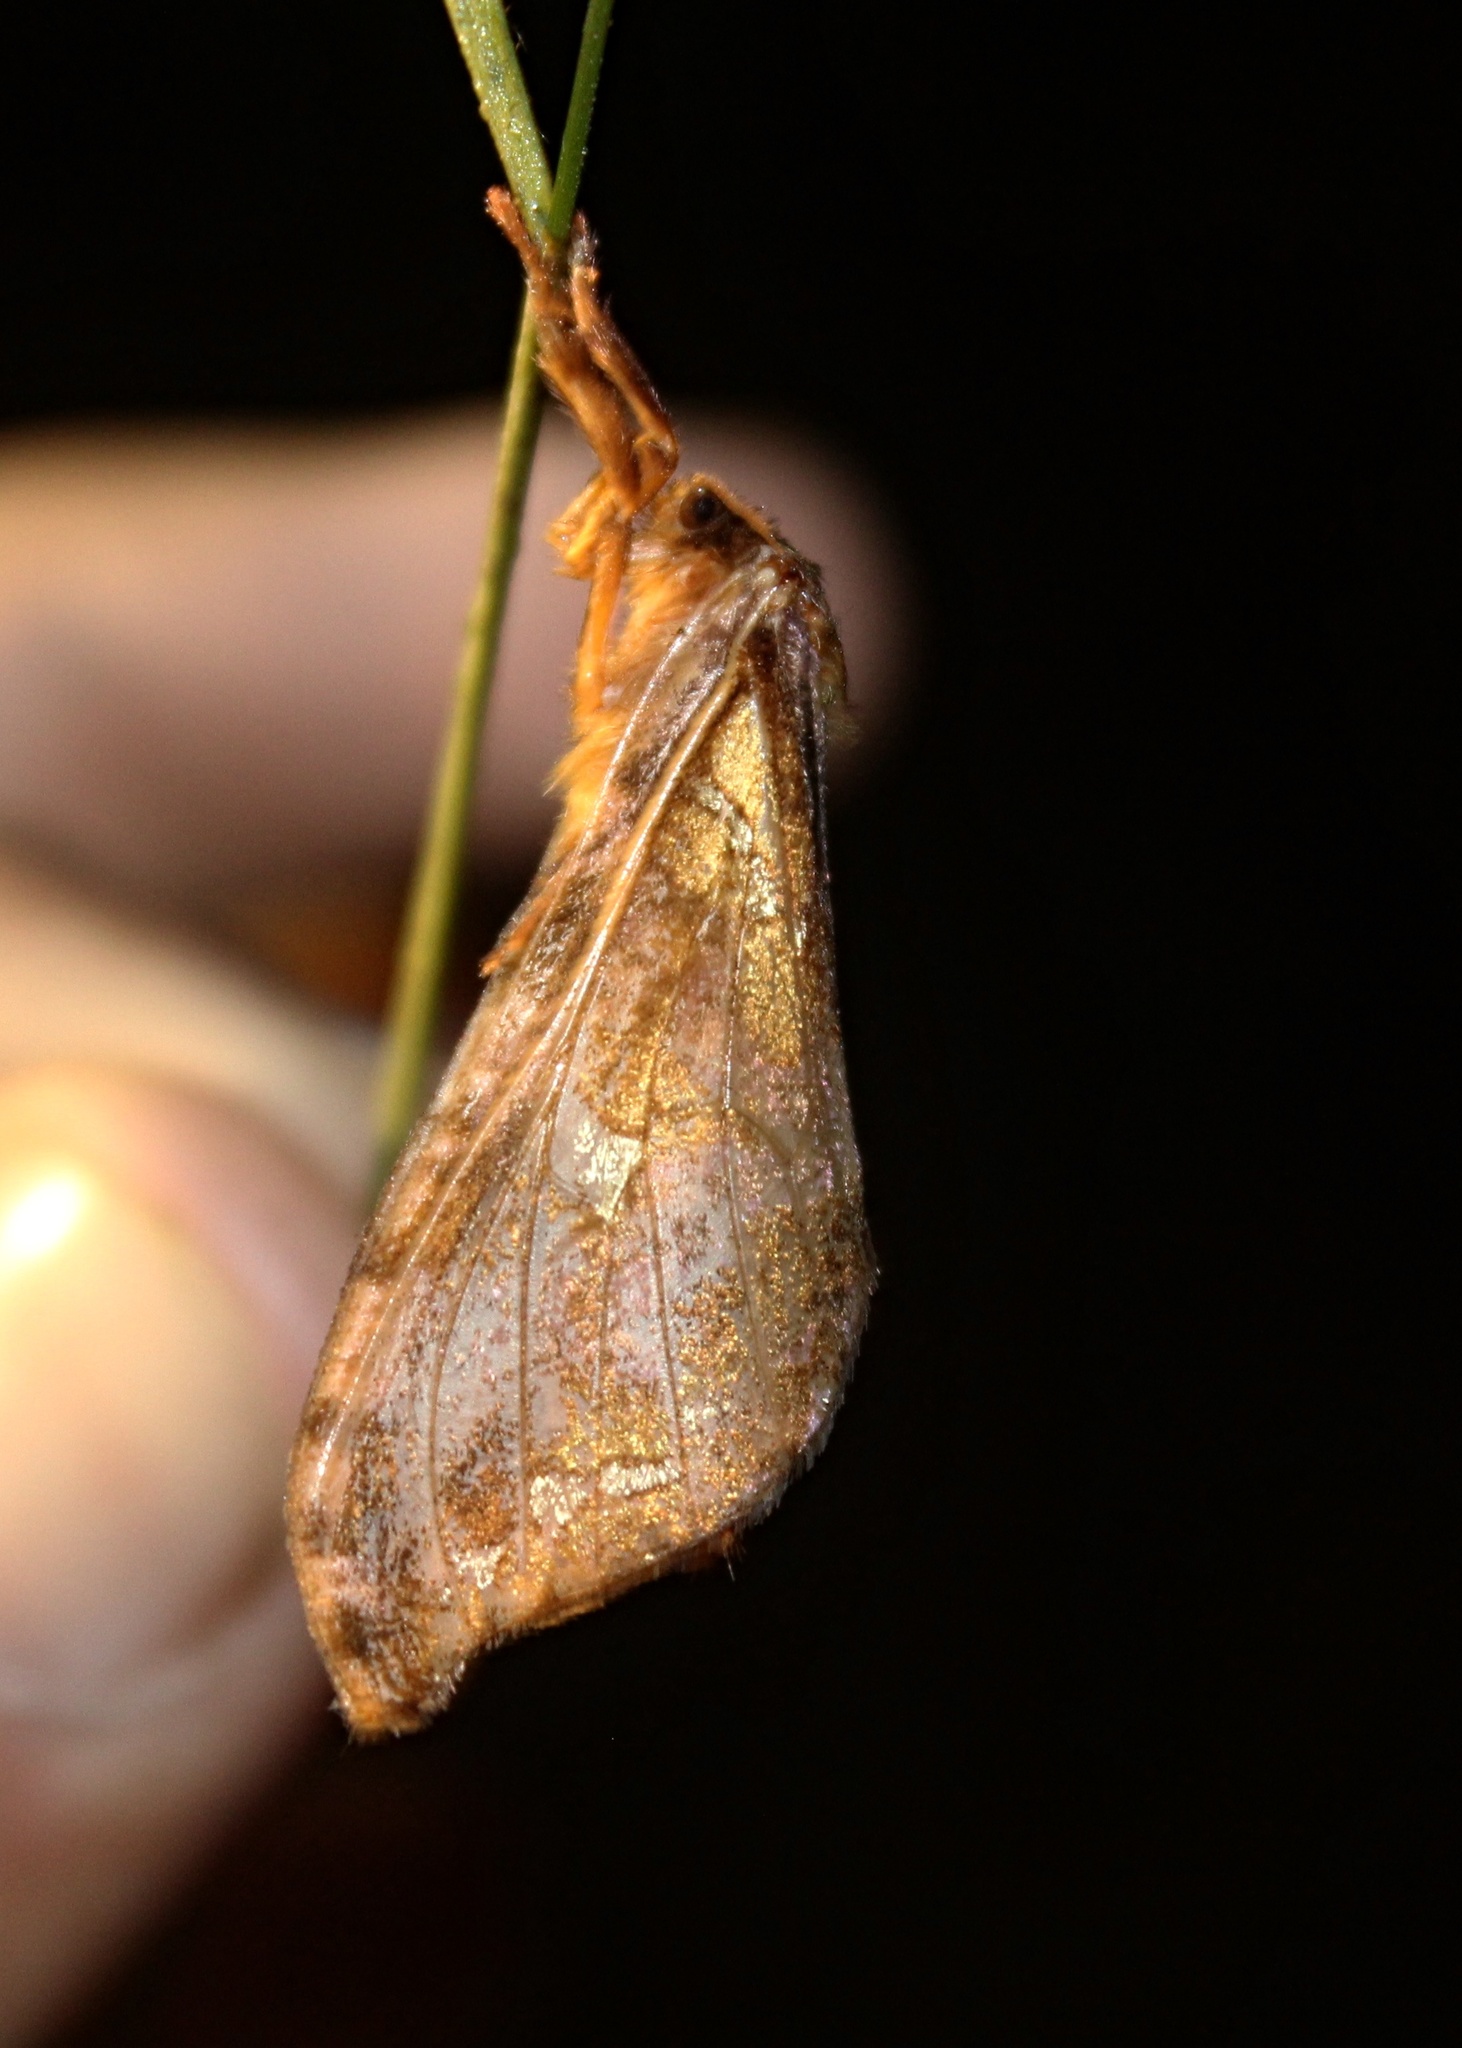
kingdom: Animalia
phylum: Arthropoda
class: Insecta
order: Lepidoptera
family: Hepialidae
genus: Sthenopis
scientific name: Sthenopis pretiosus
